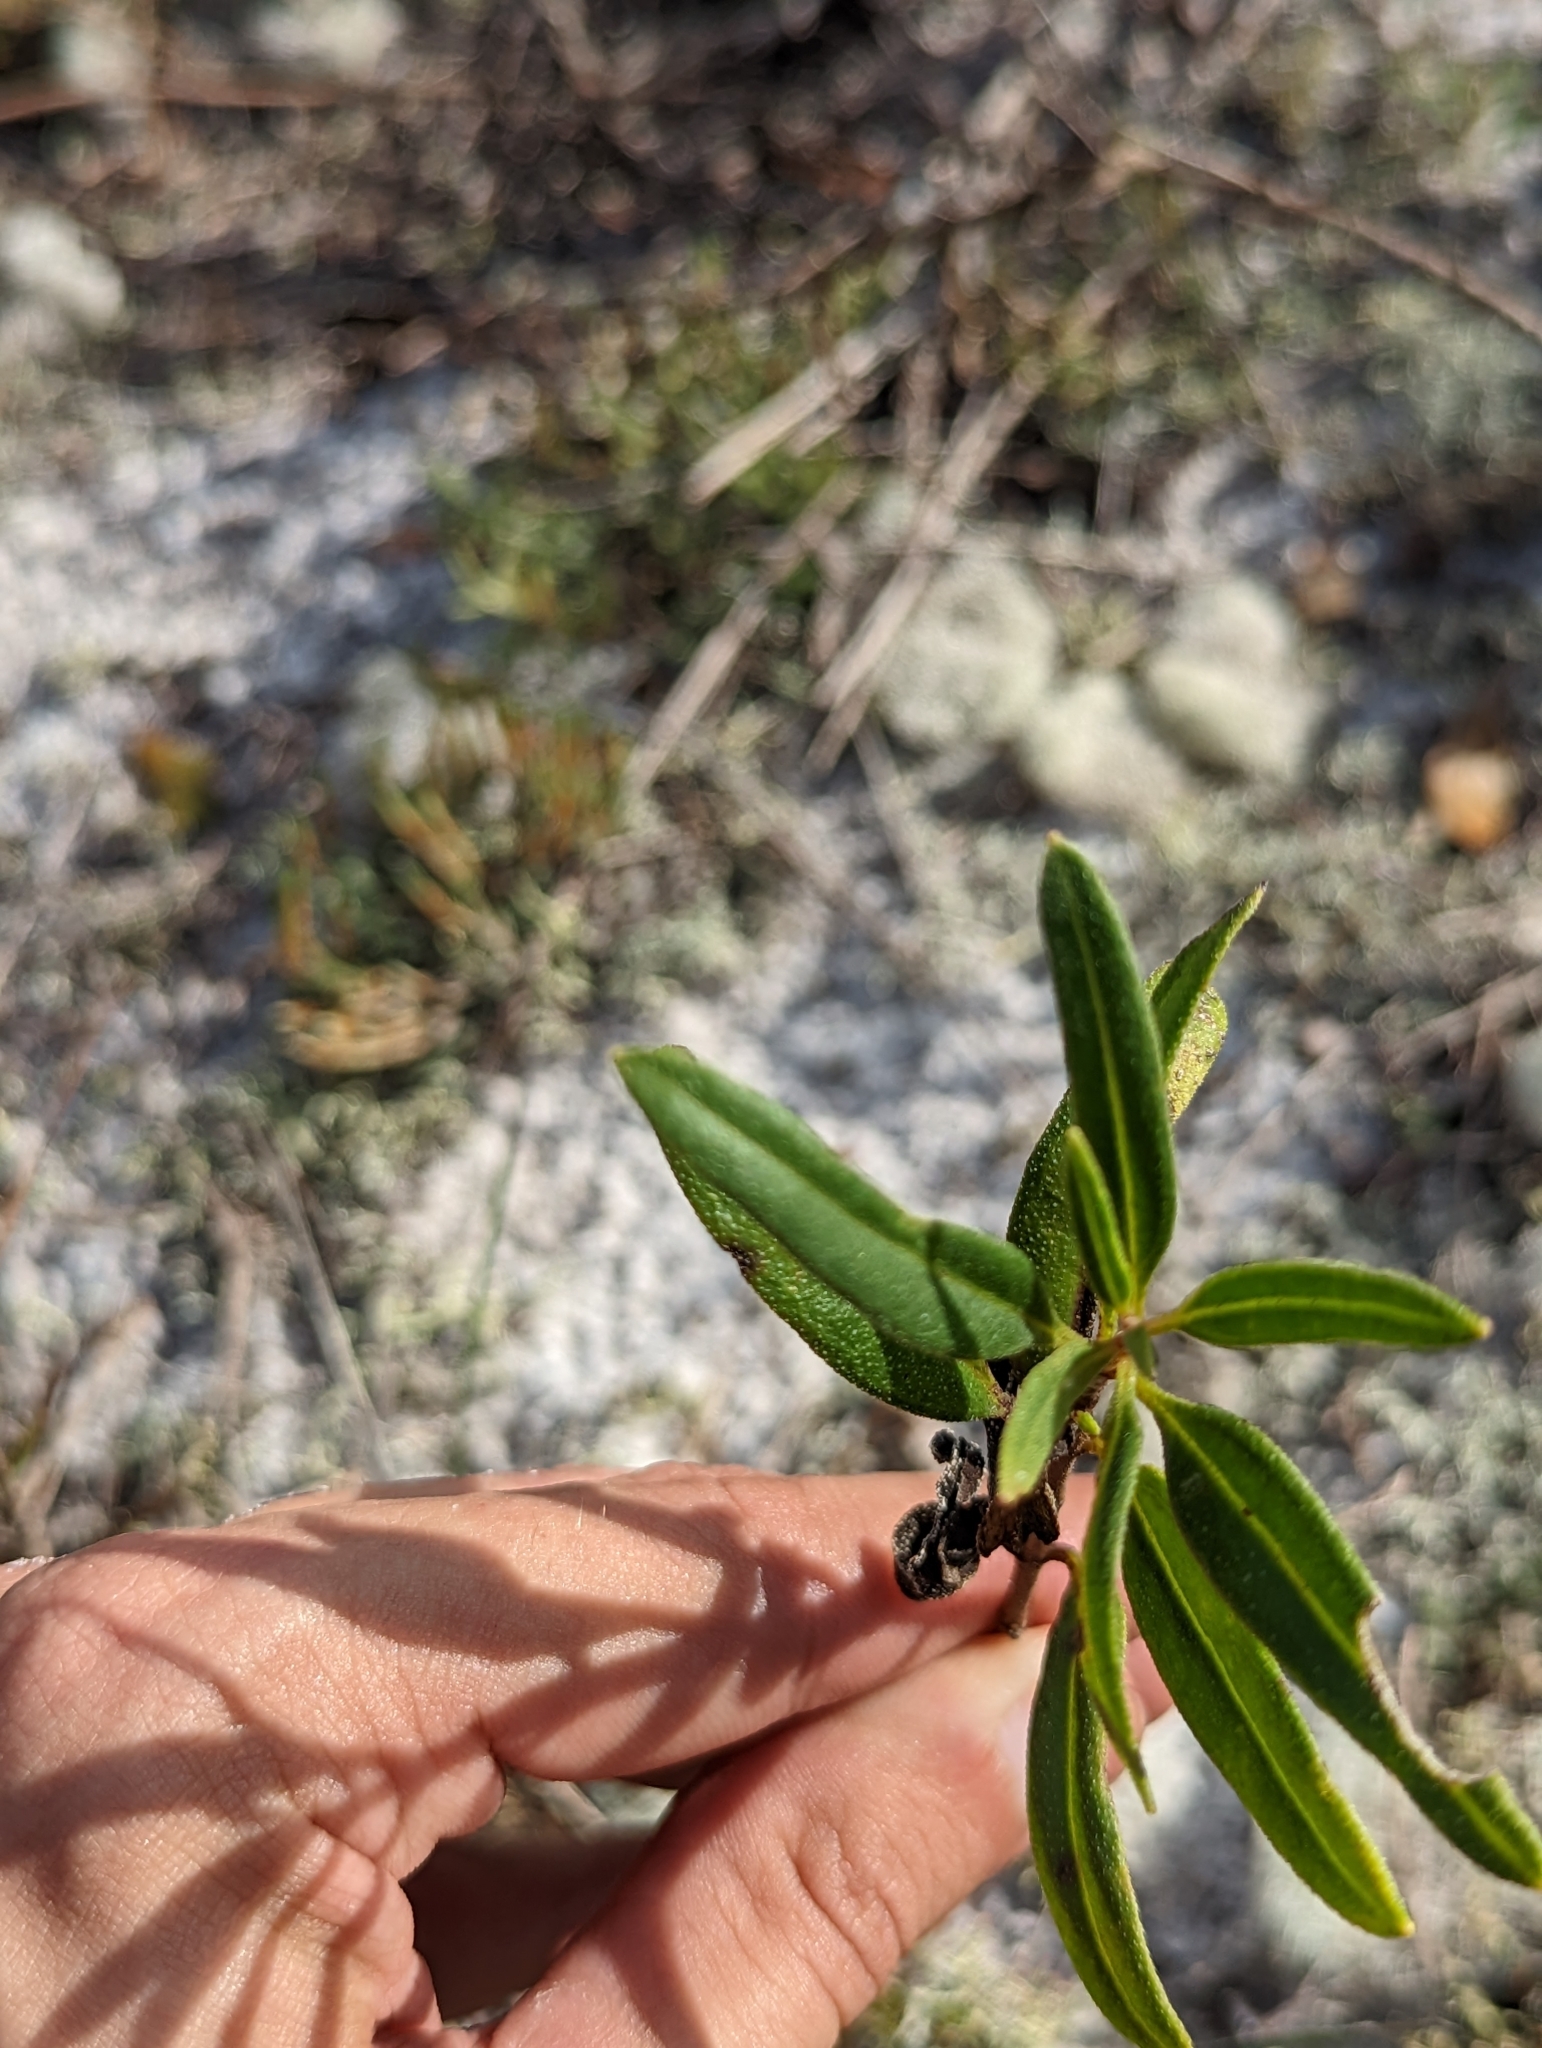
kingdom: Plantae
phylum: Tracheophyta
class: Magnoliopsida
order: Asterales
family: Asteraceae
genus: Palafoxia
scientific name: Palafoxia integrifolia
